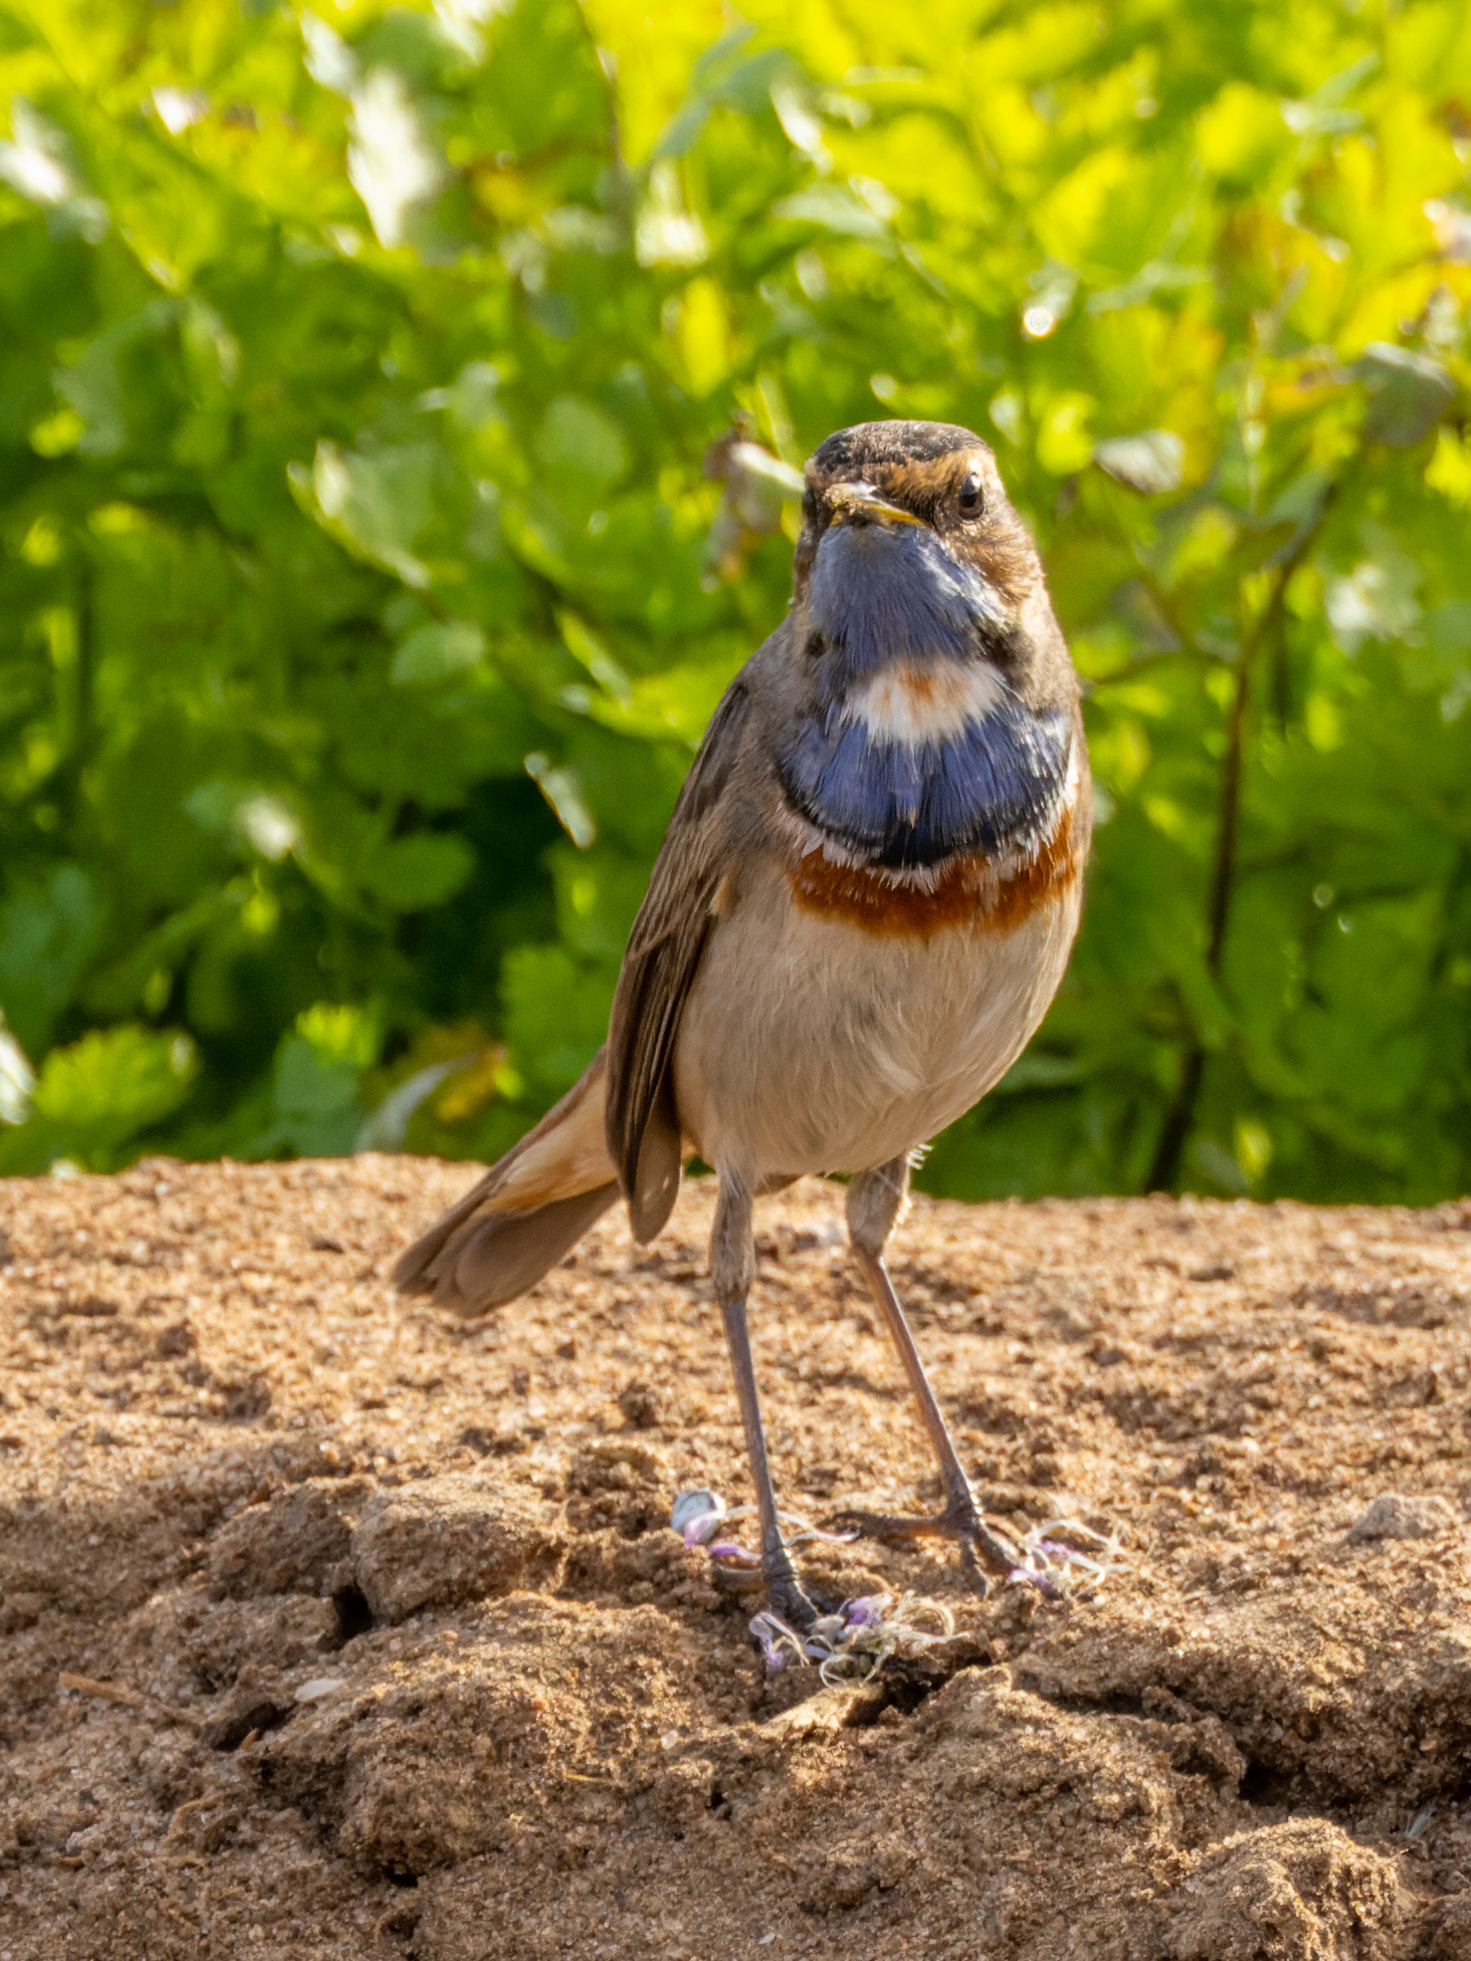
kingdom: Animalia
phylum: Chordata
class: Aves
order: Passeriformes
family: Muscicapidae
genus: Luscinia
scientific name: Luscinia svecica
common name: Bluethroat
